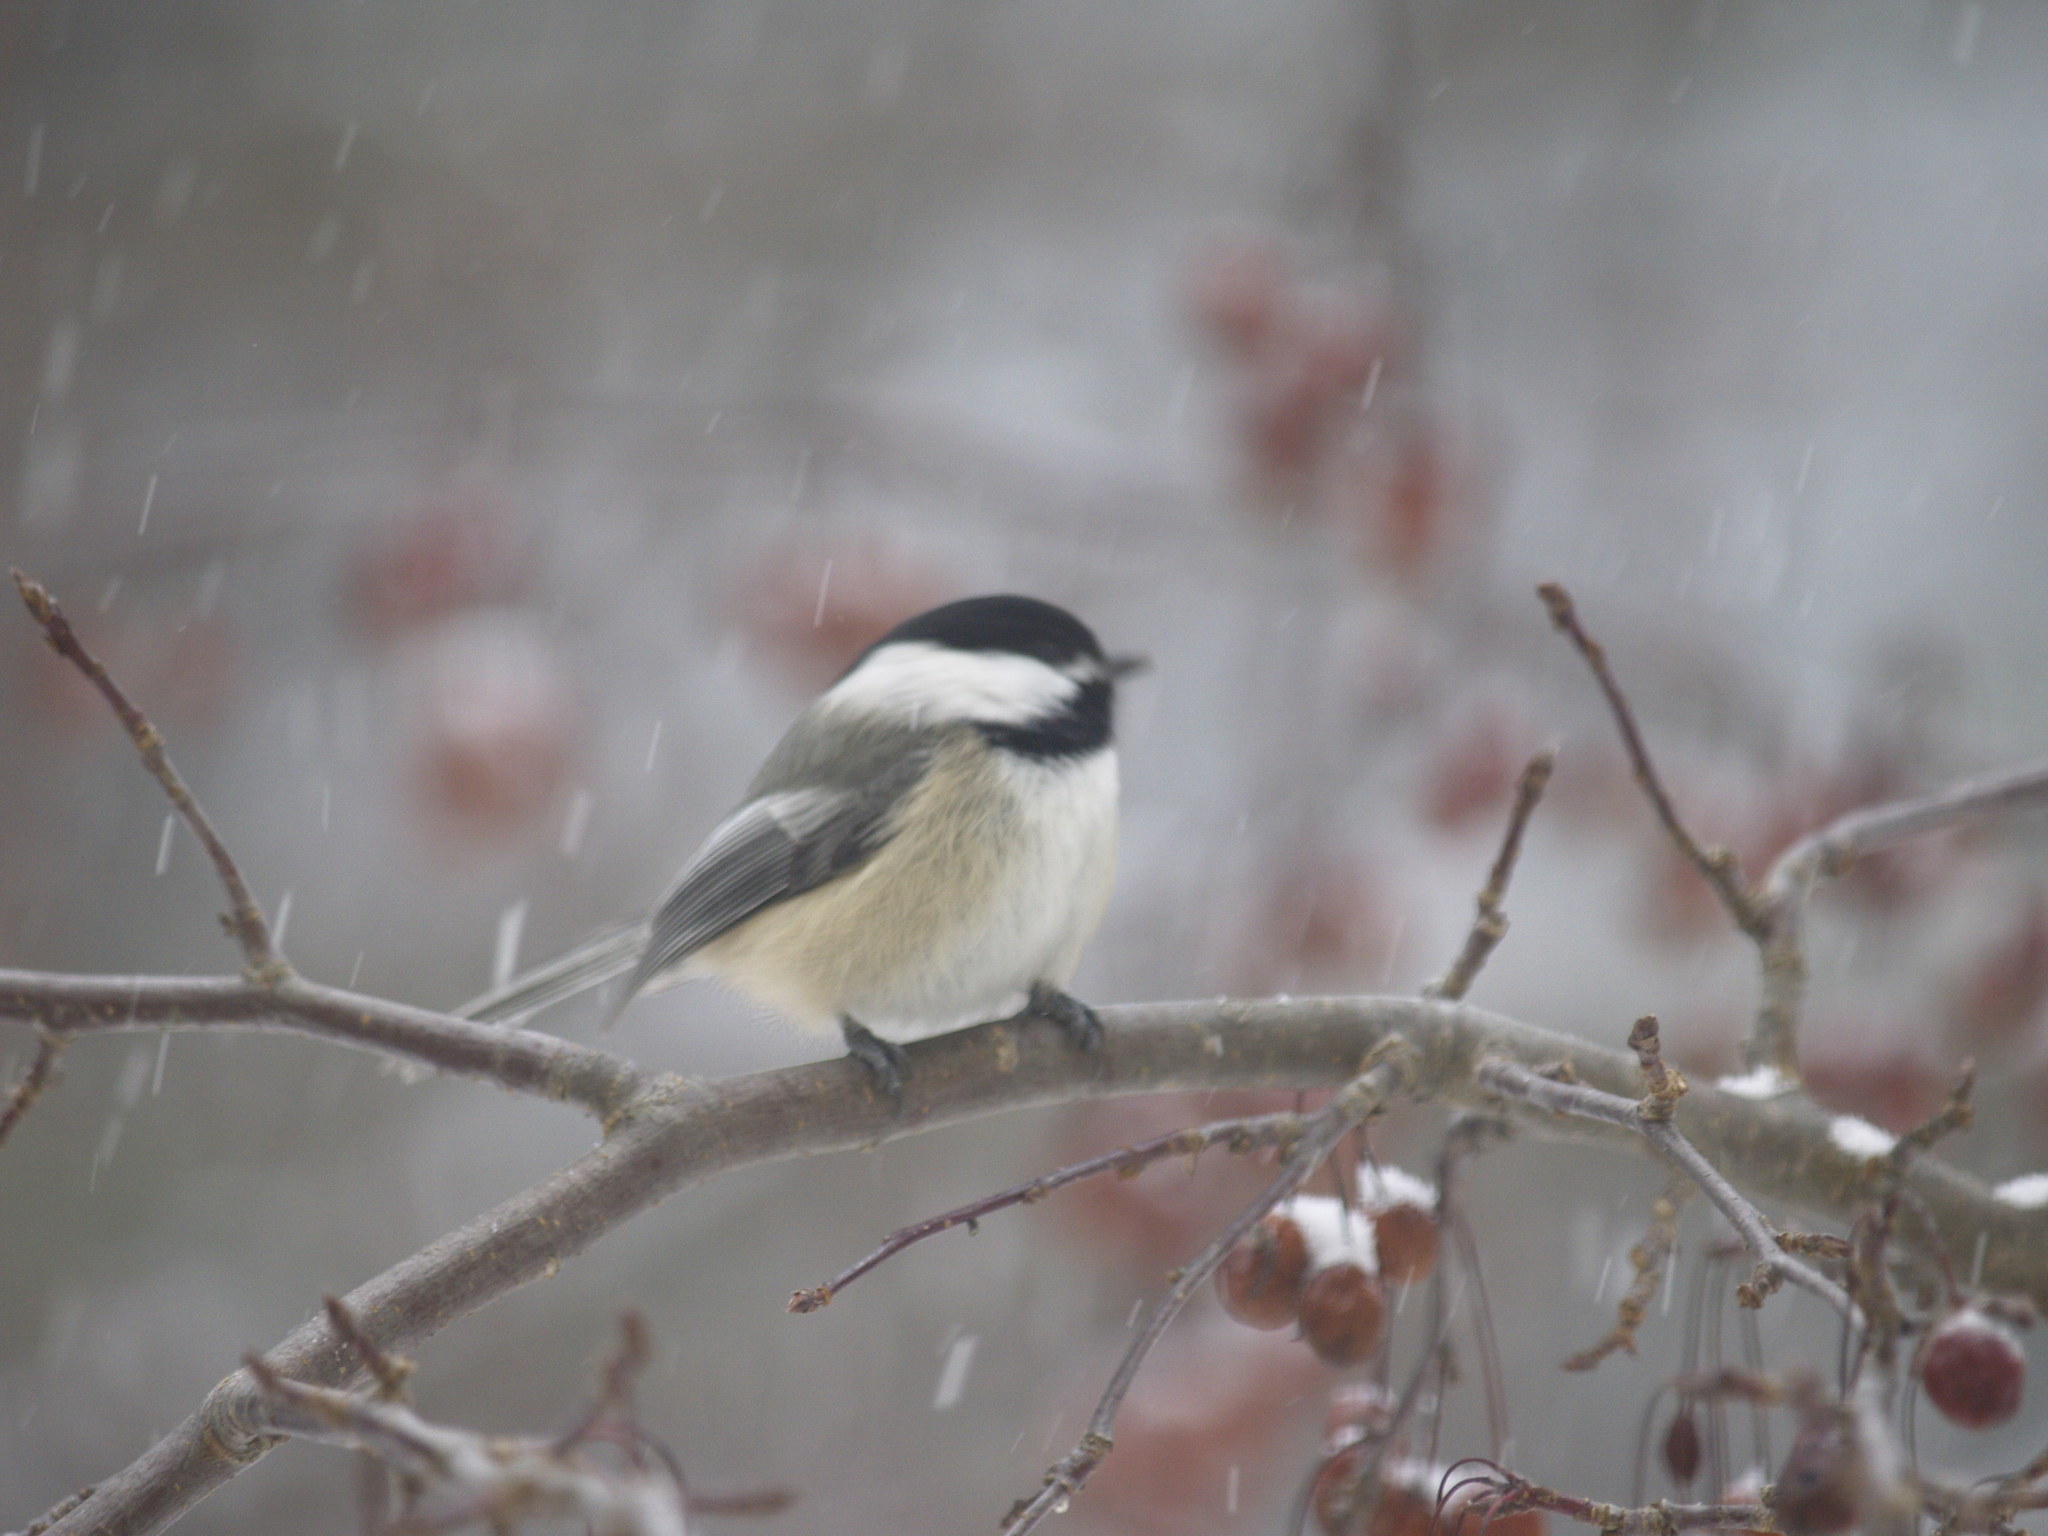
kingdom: Animalia
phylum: Chordata
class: Aves
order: Passeriformes
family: Paridae
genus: Poecile
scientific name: Poecile atricapillus
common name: Black-capped chickadee
